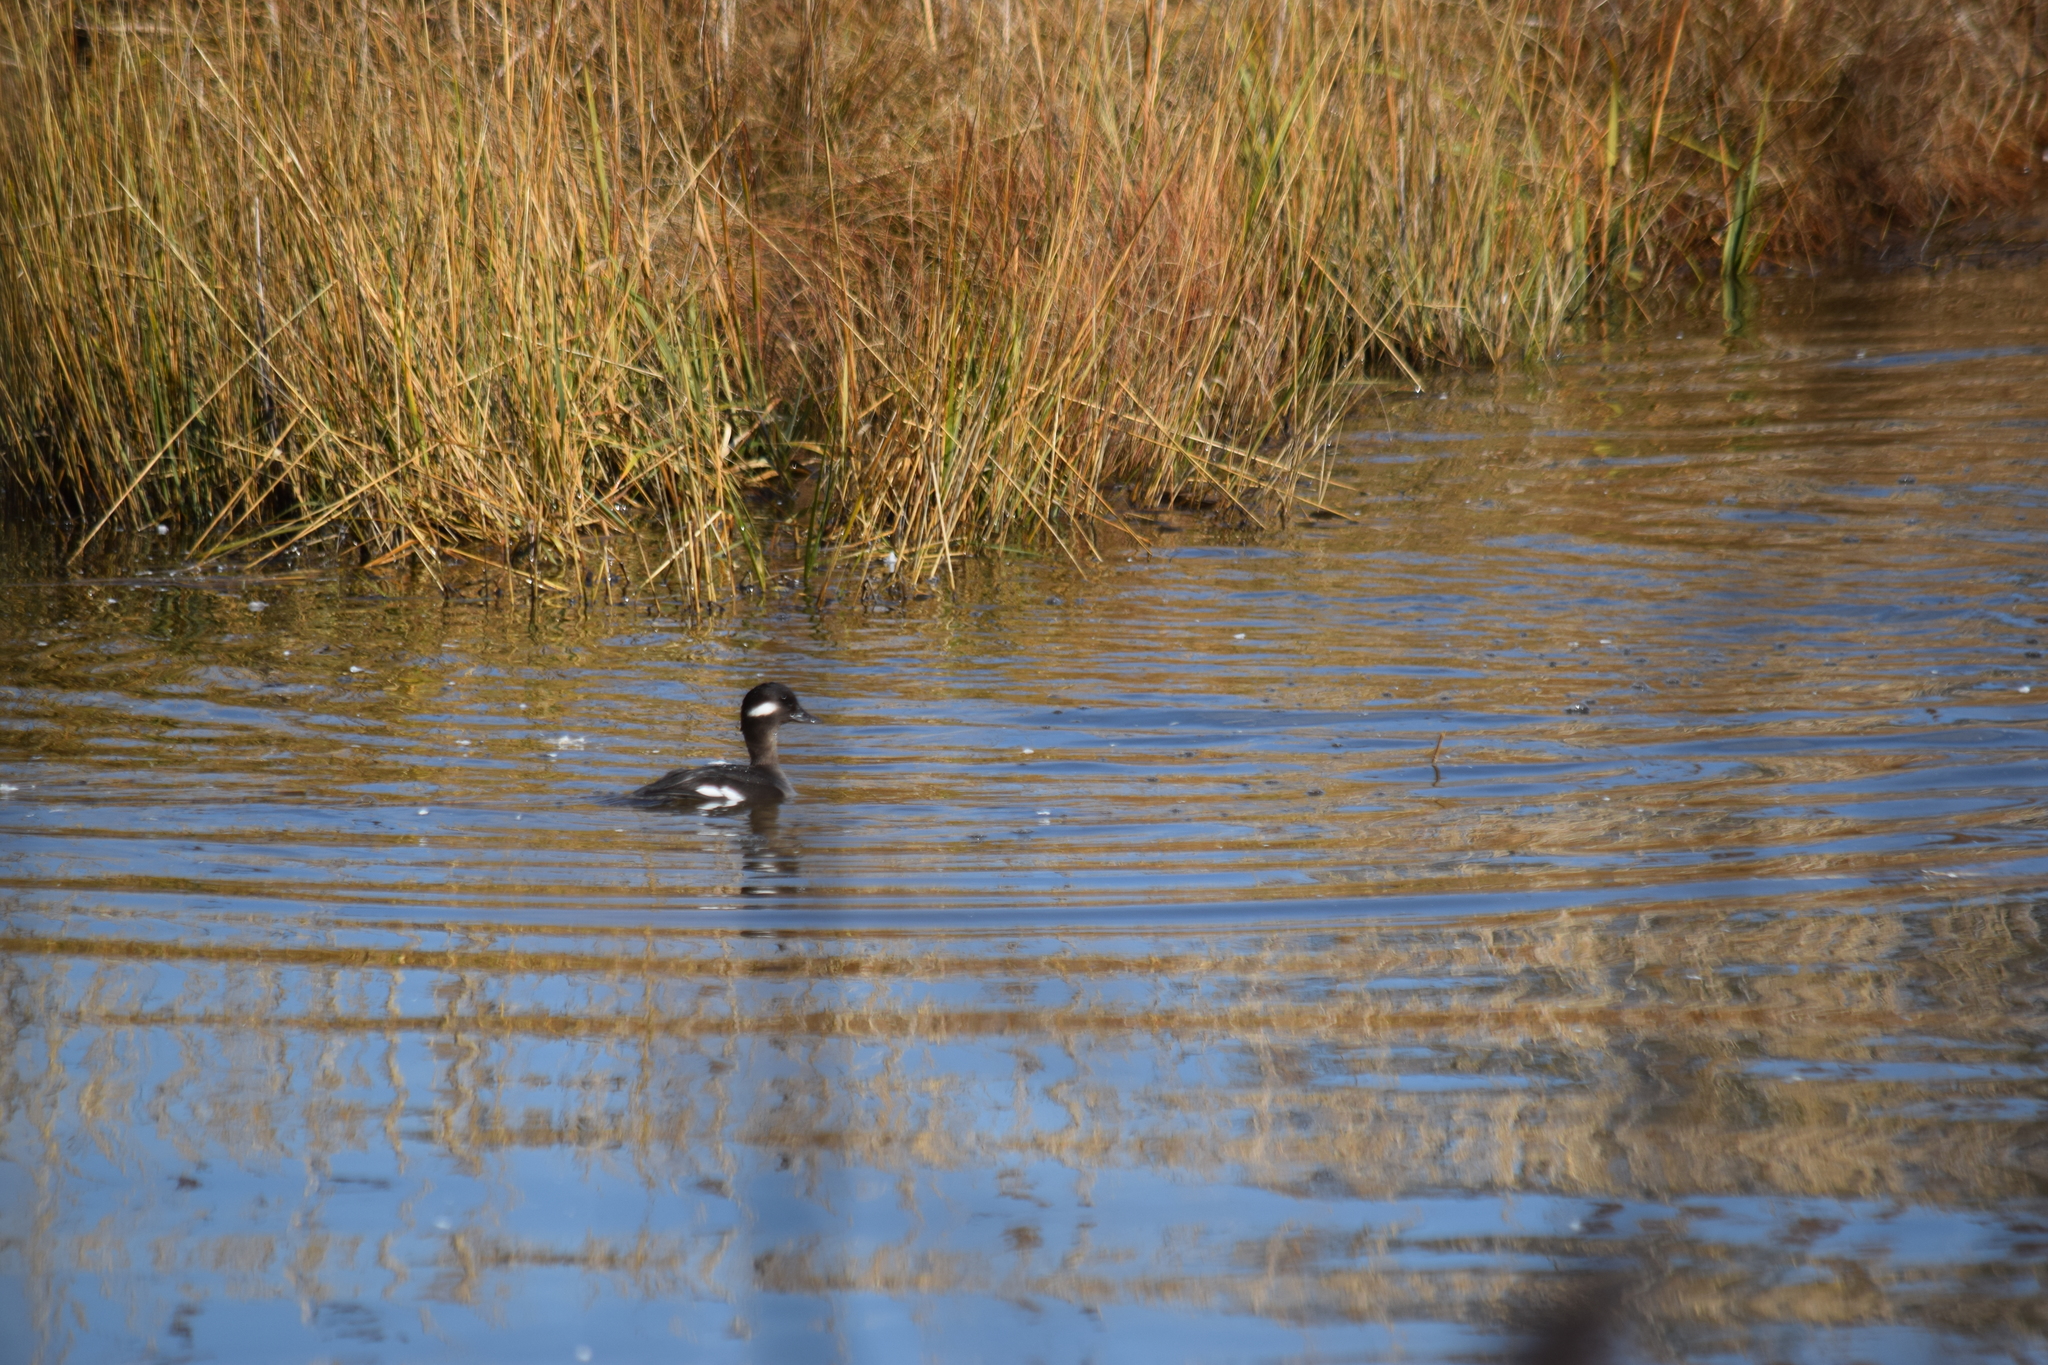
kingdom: Animalia
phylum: Chordata
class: Aves
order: Anseriformes
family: Anatidae
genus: Bucephala
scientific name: Bucephala albeola
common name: Bufflehead
